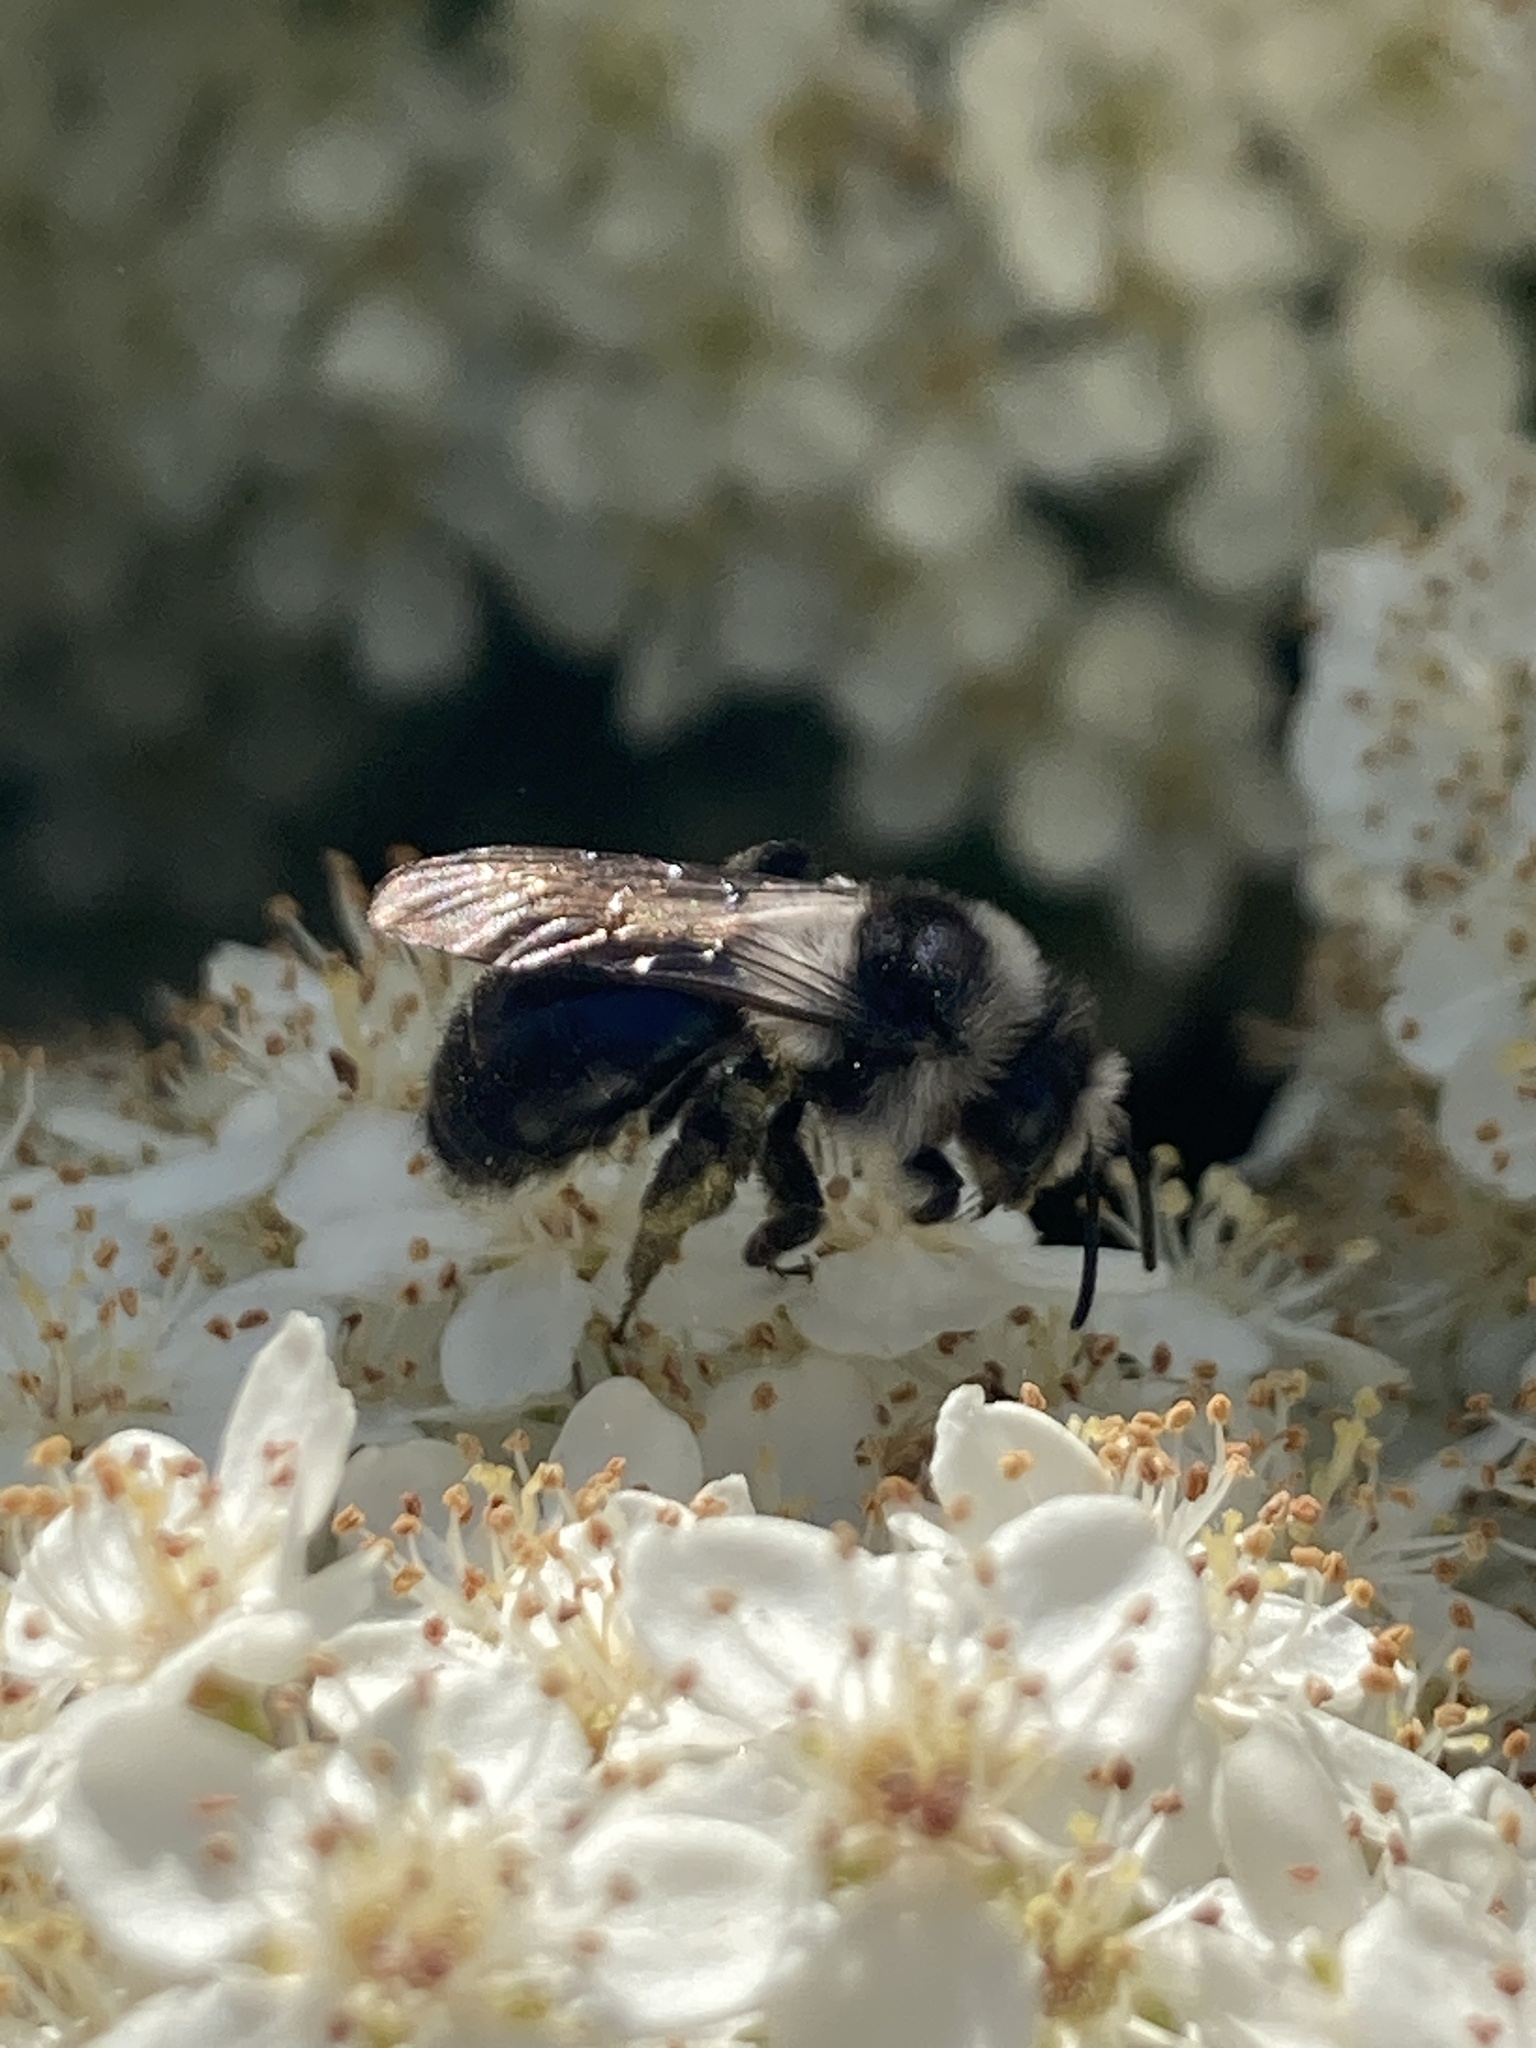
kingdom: Animalia
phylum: Arthropoda
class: Insecta
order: Hymenoptera
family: Andrenidae
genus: Andrena
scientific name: Andrena cineraria
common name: Ashy mining bee
